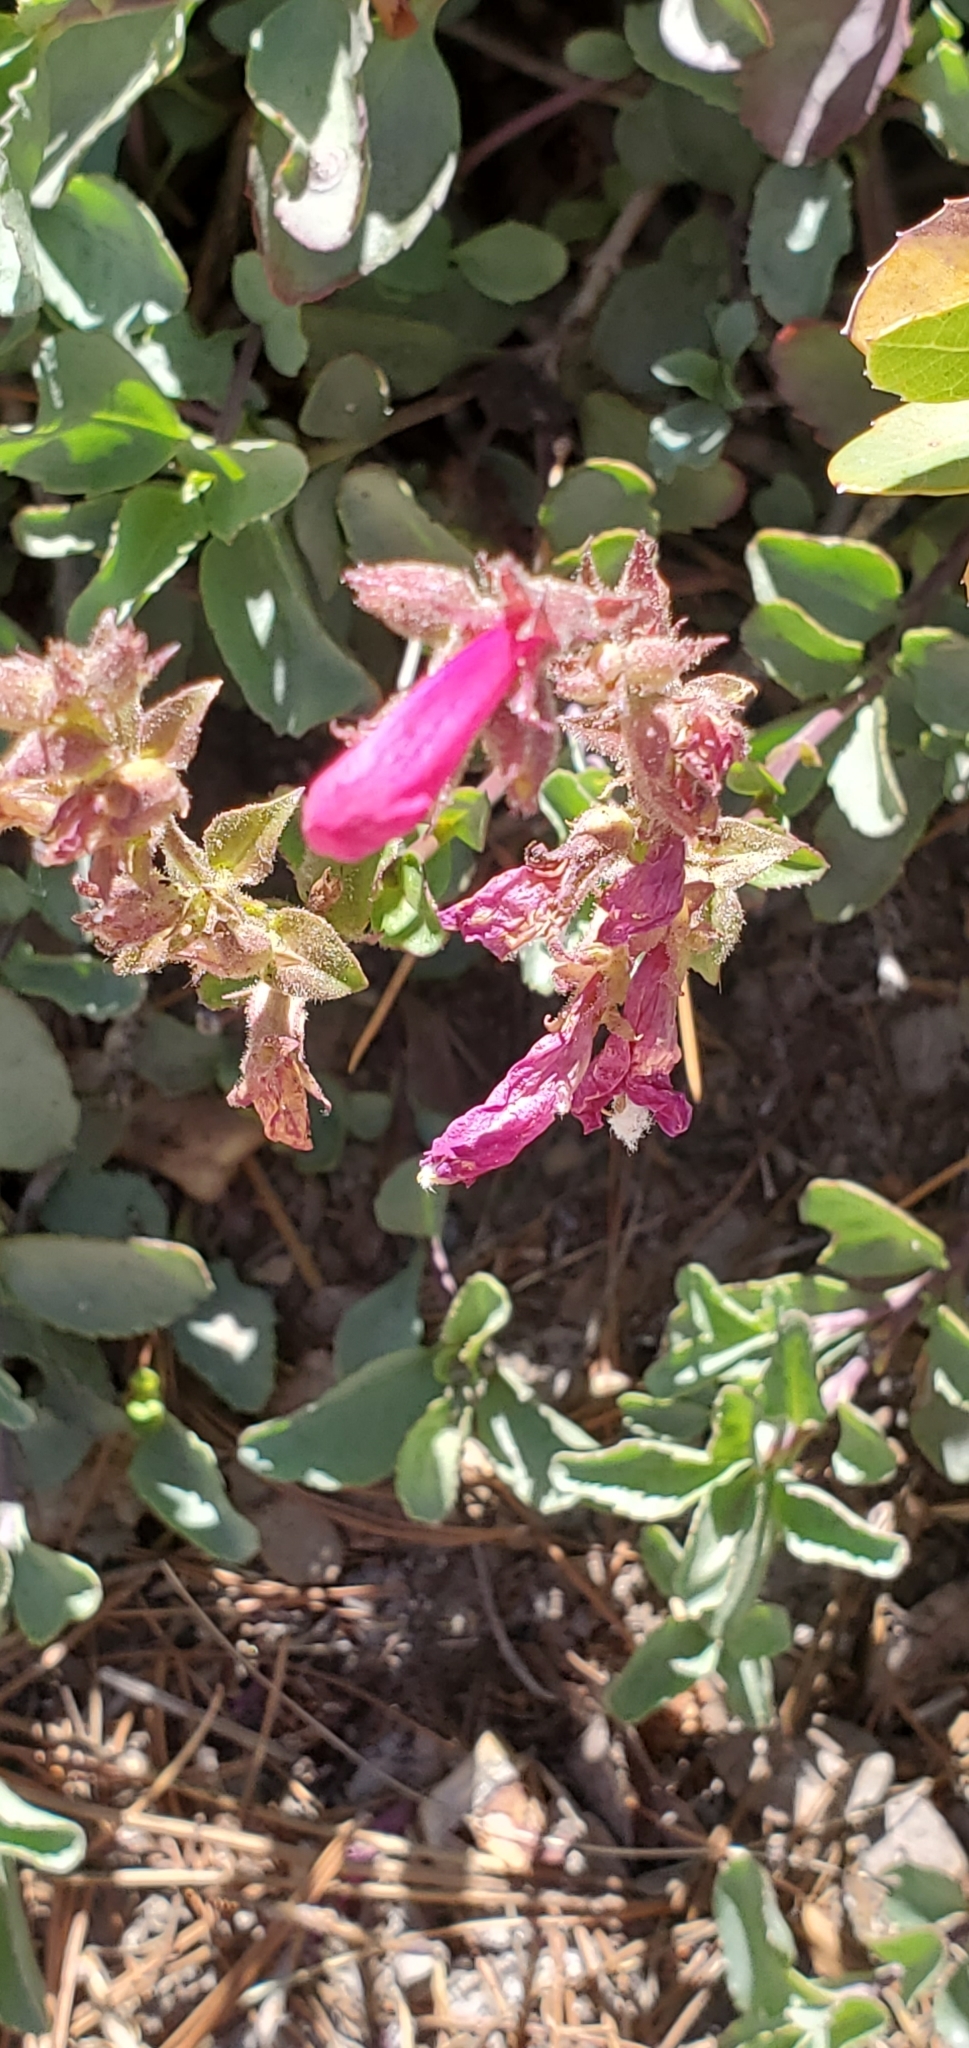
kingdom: Plantae
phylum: Tracheophyta
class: Magnoliopsida
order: Lamiales
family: Plantaginaceae
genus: Penstemon
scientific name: Penstemon newberryi
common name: Mountain-pride
